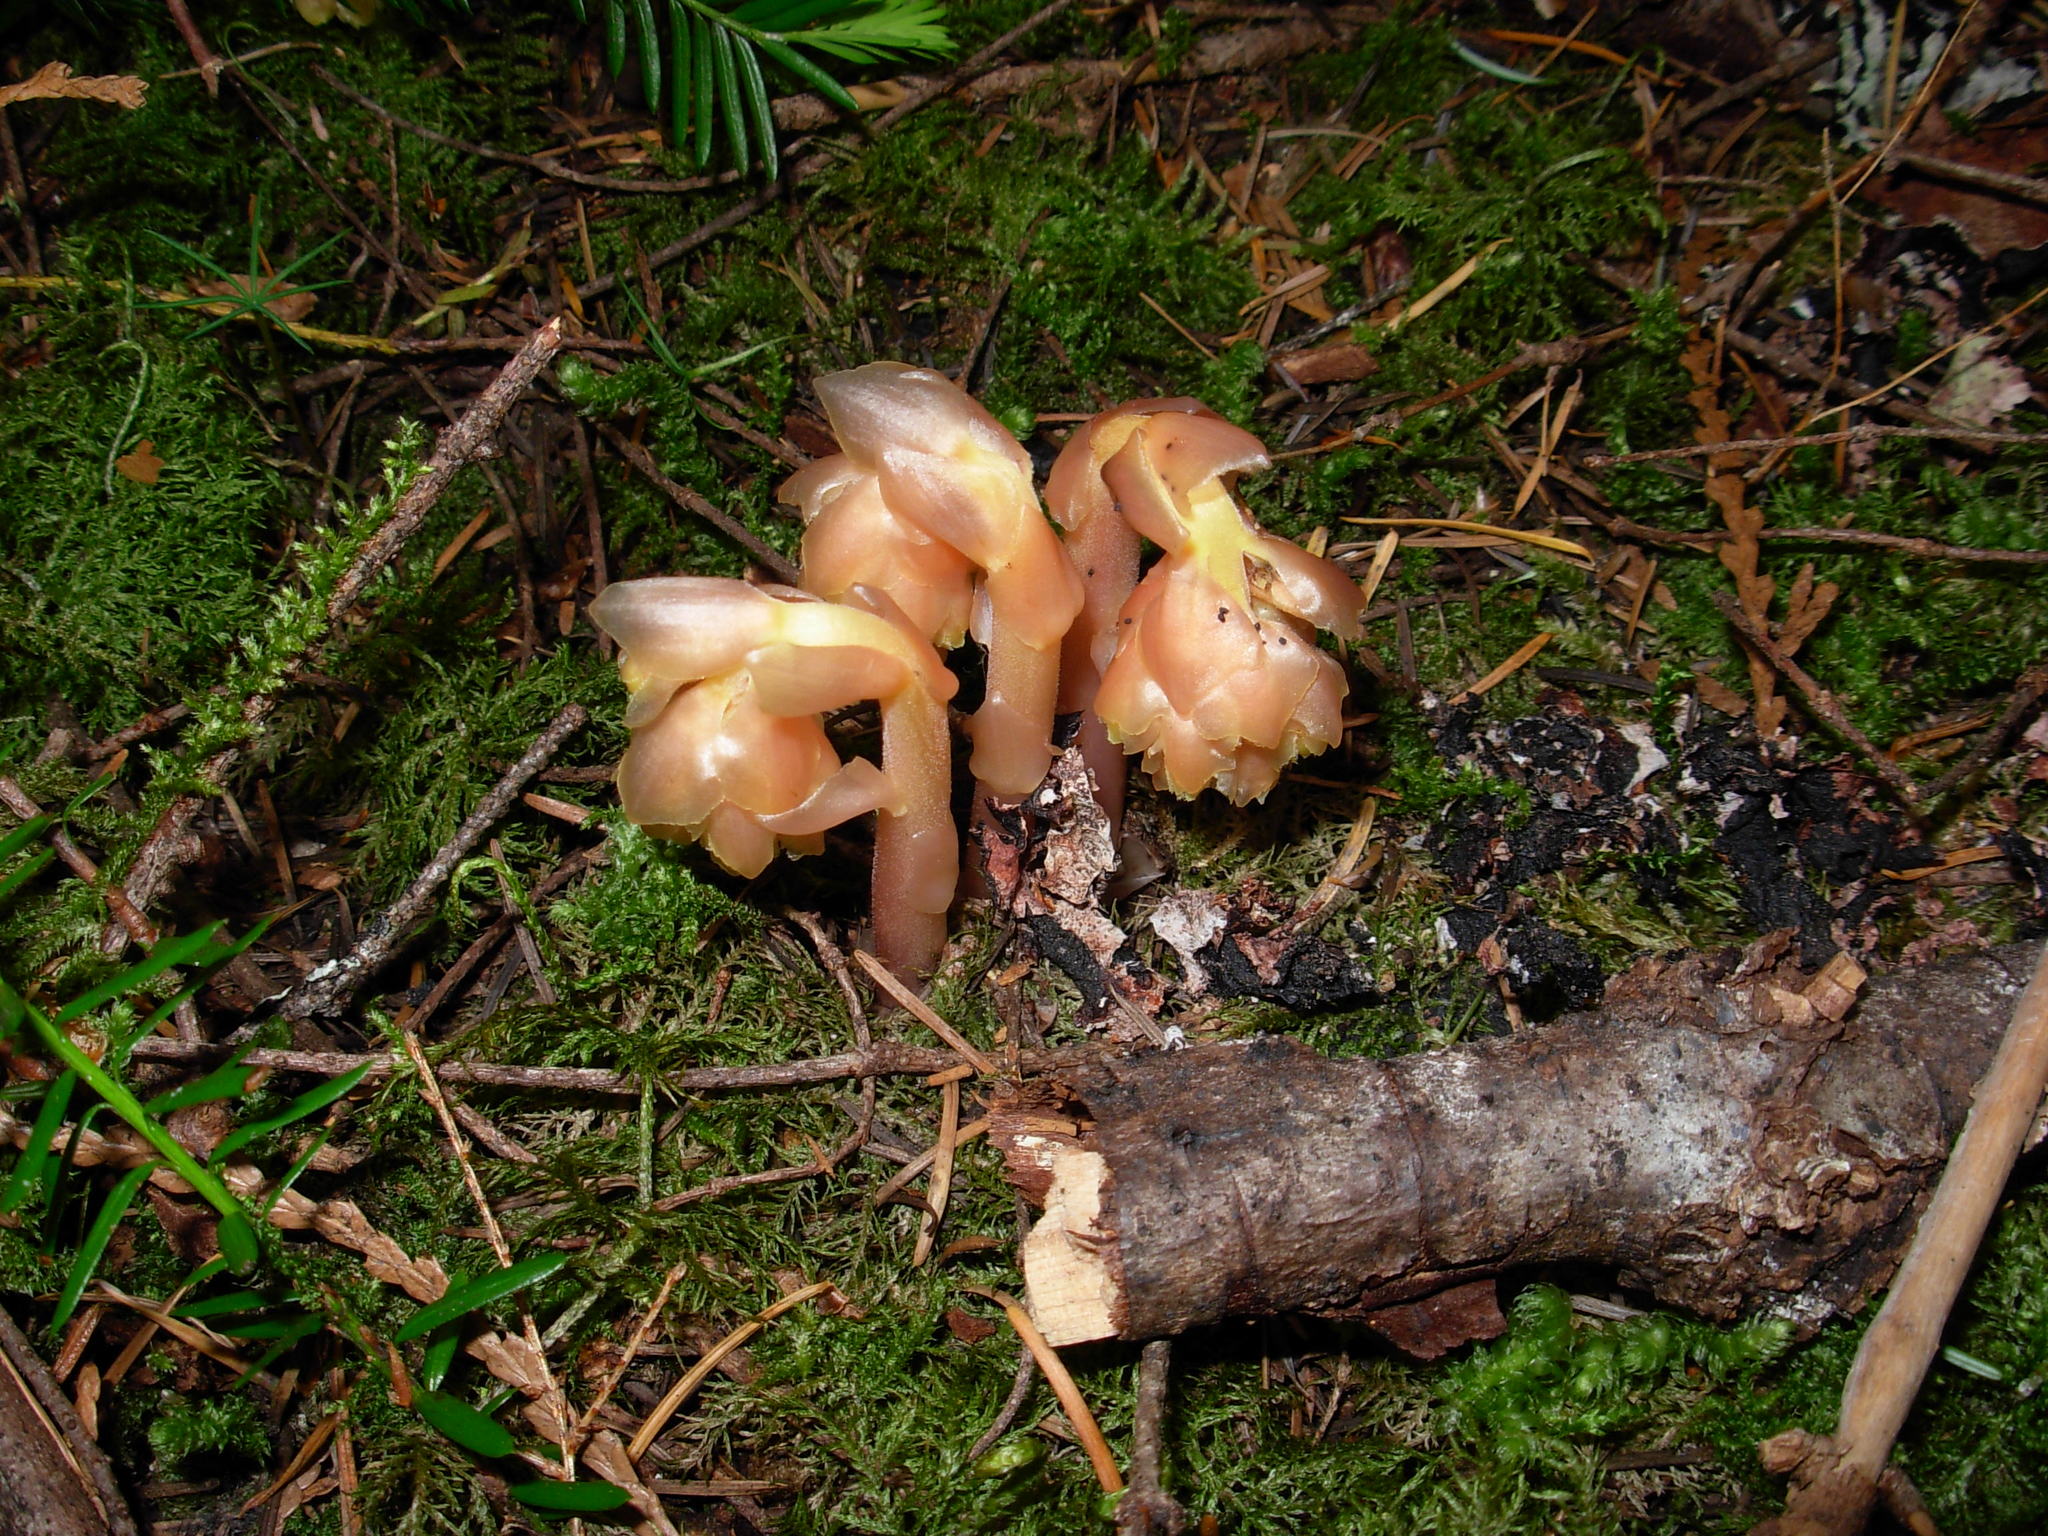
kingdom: Plantae
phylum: Tracheophyta
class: Magnoliopsida
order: Ericales
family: Ericaceae
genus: Hypopitys
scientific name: Hypopitys monotropa
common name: Yellow bird's-nest
